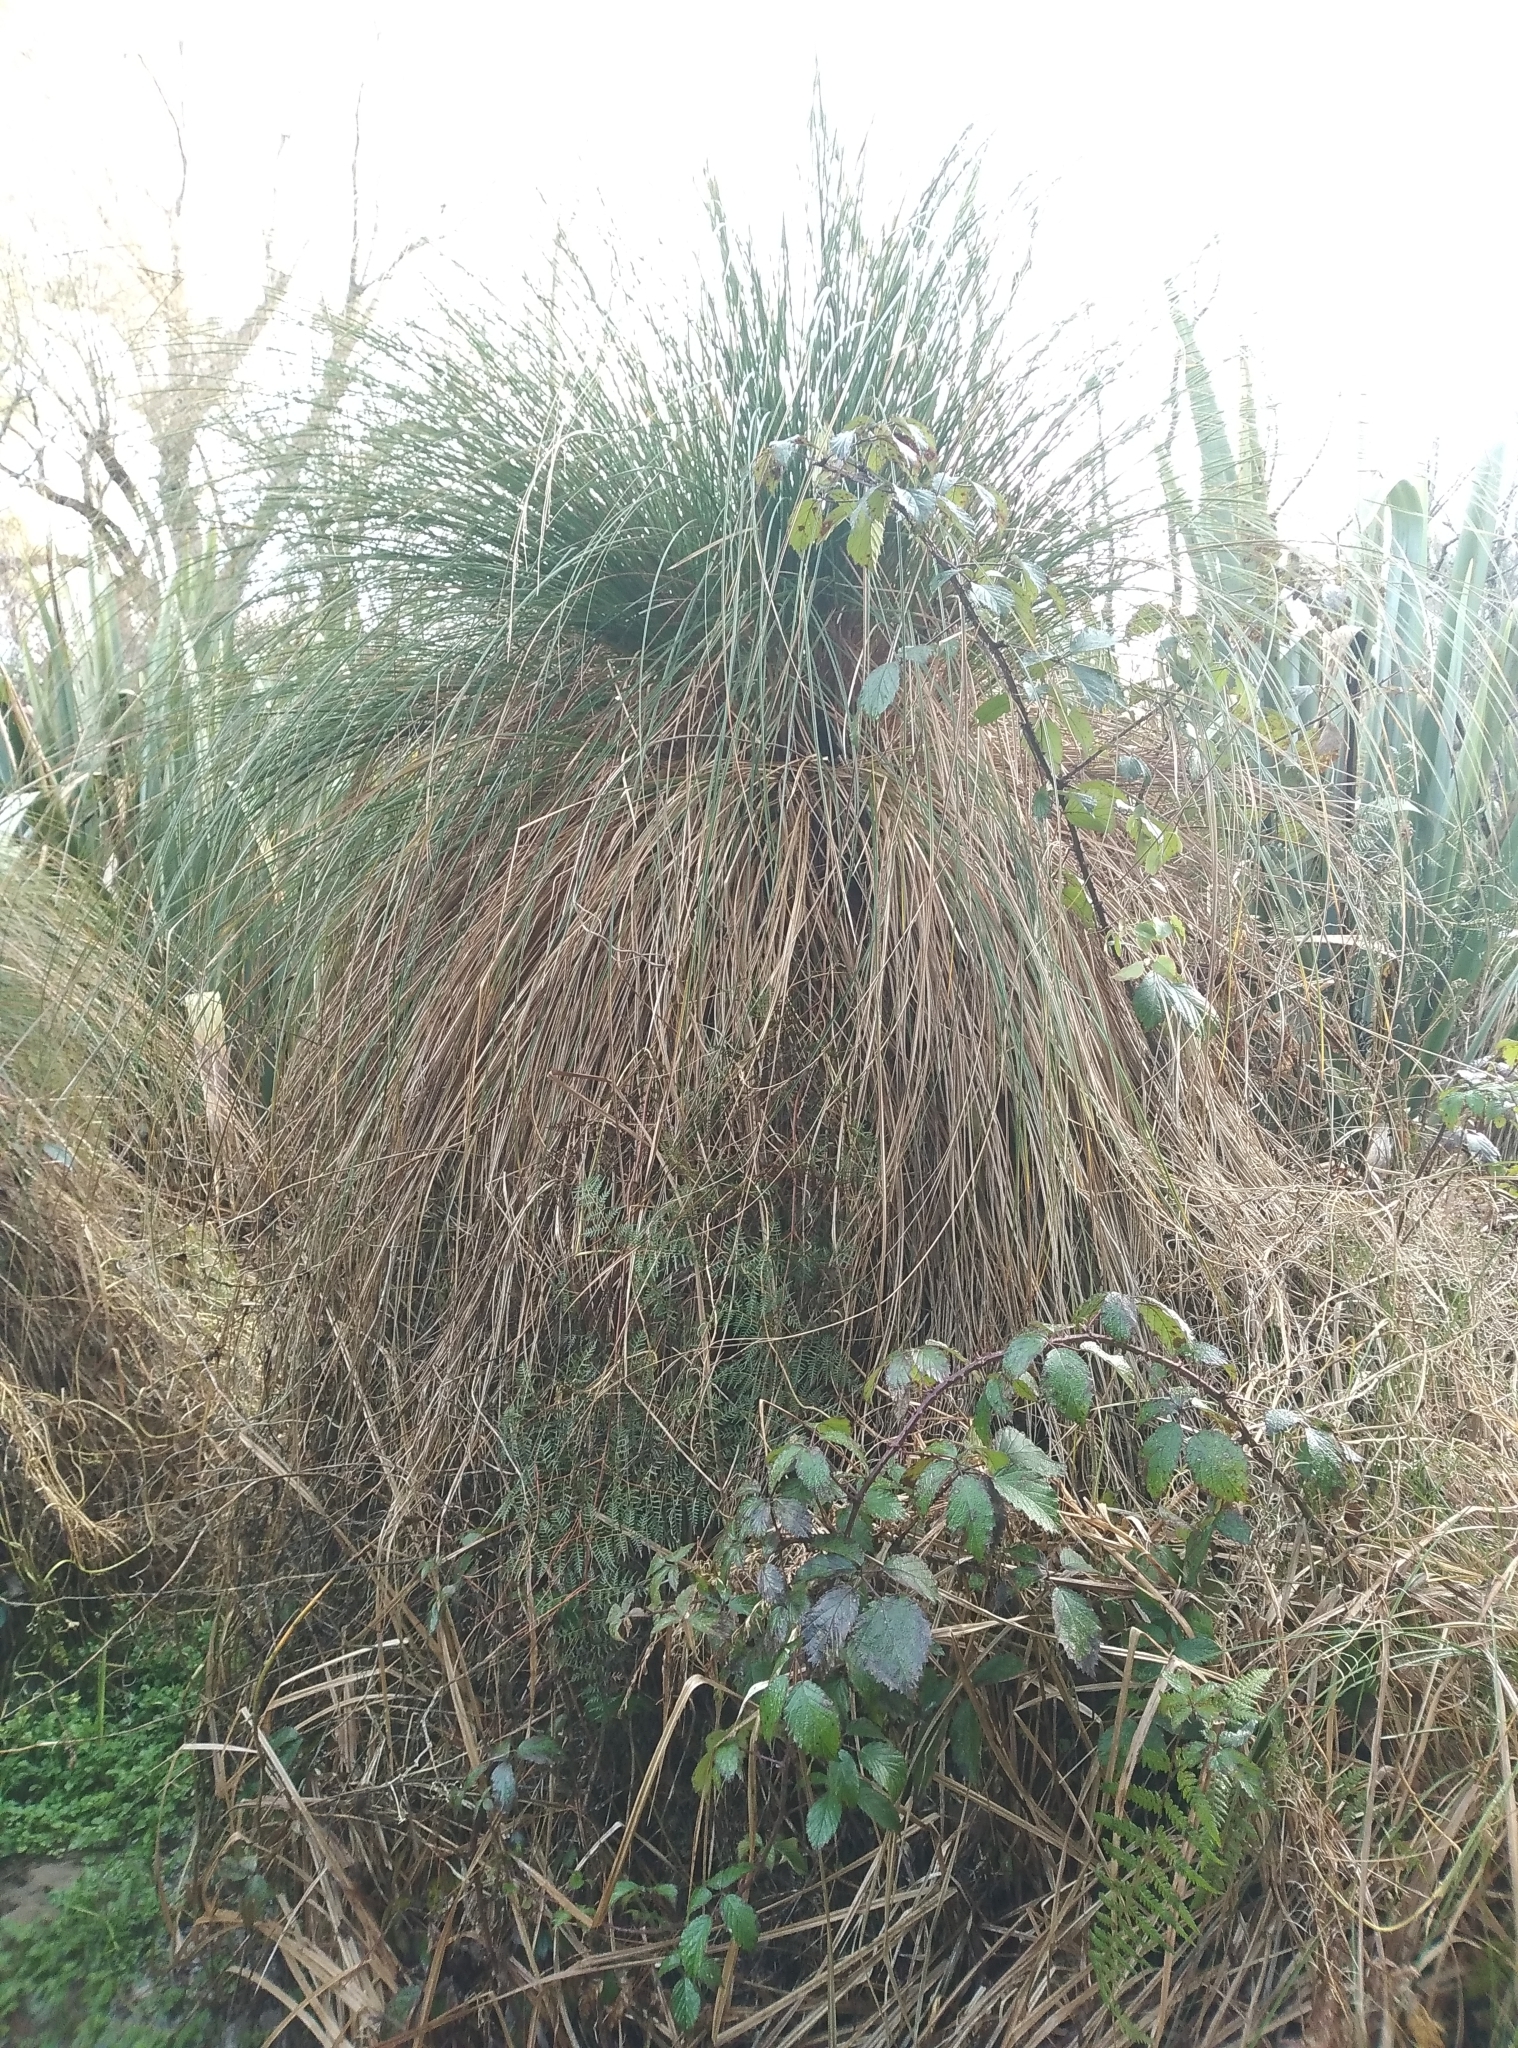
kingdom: Plantae
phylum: Tracheophyta
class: Liliopsida
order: Poales
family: Cyperaceae
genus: Carex
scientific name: Carex secta
